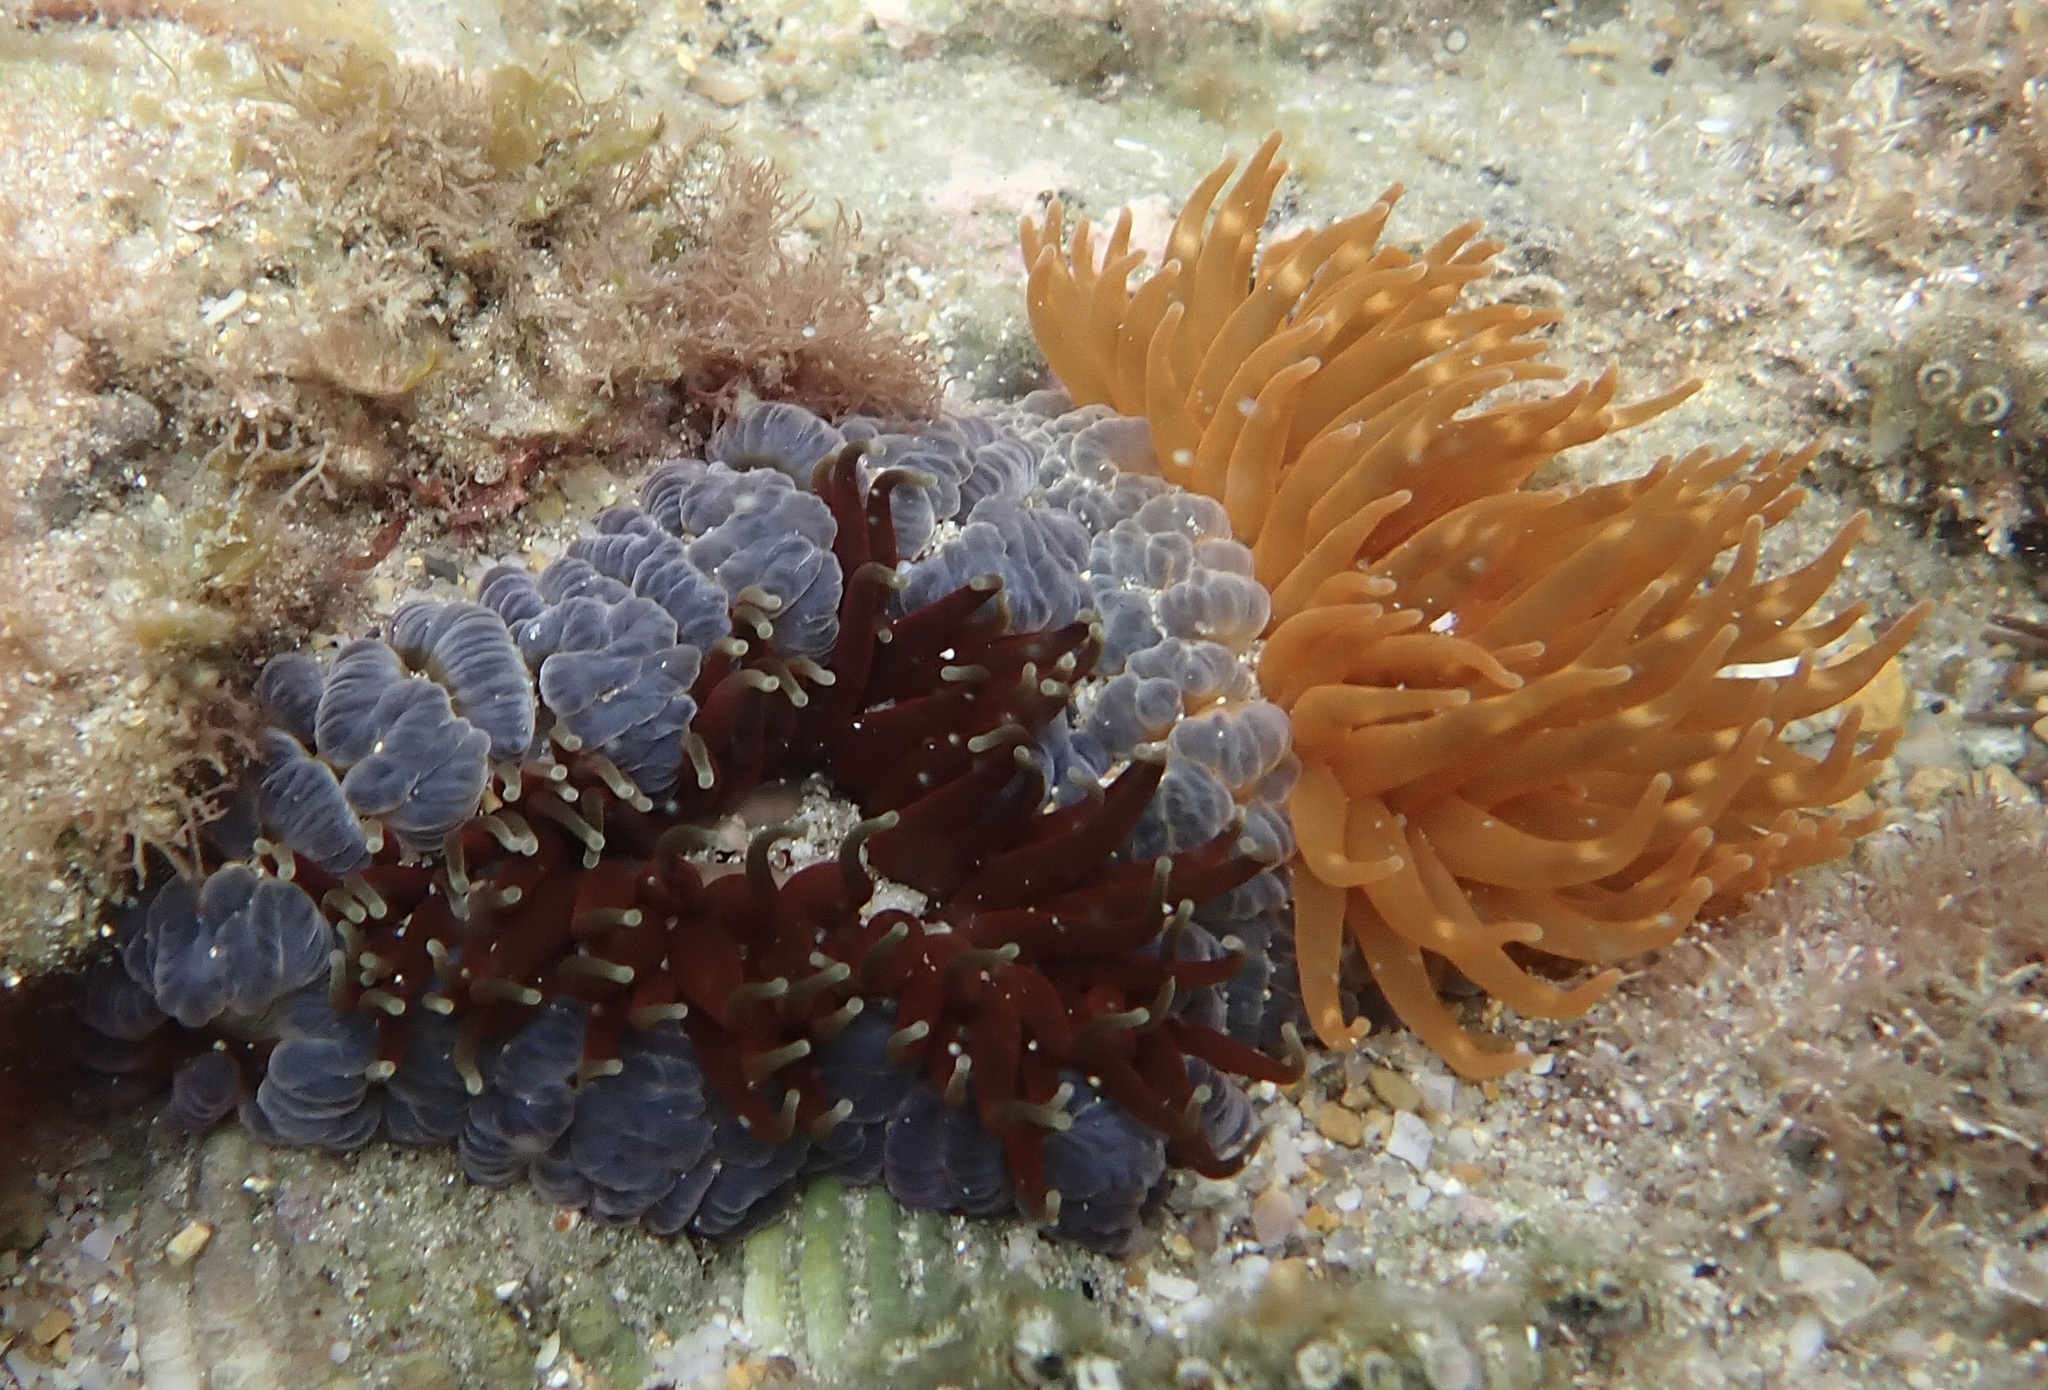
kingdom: Animalia
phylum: Cnidaria
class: Anthozoa
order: Actiniaria
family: Actiniidae
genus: Phlyctenanthus
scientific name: Phlyctenanthus australis
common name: Southern anemone
